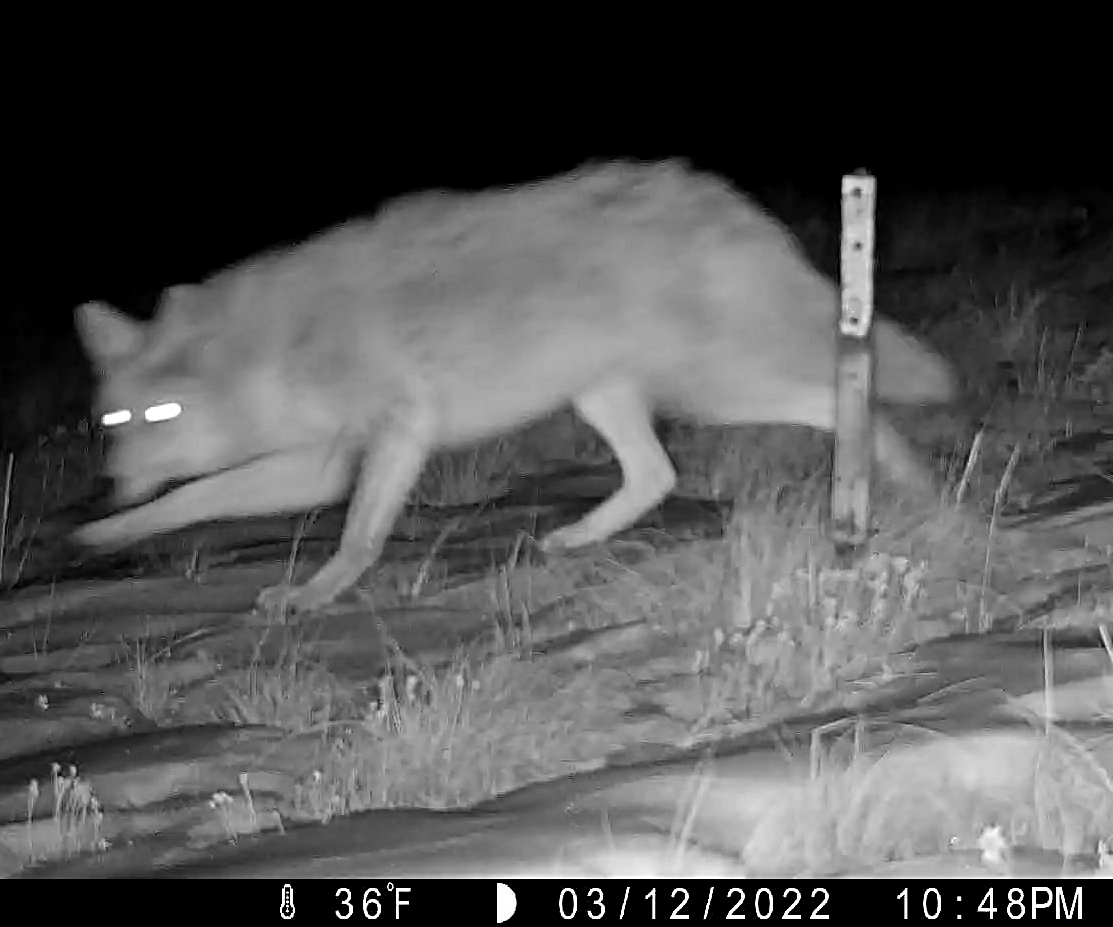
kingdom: Animalia
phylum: Chordata
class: Mammalia
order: Carnivora
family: Canidae
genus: Canis
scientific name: Canis latrans
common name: Coyote
